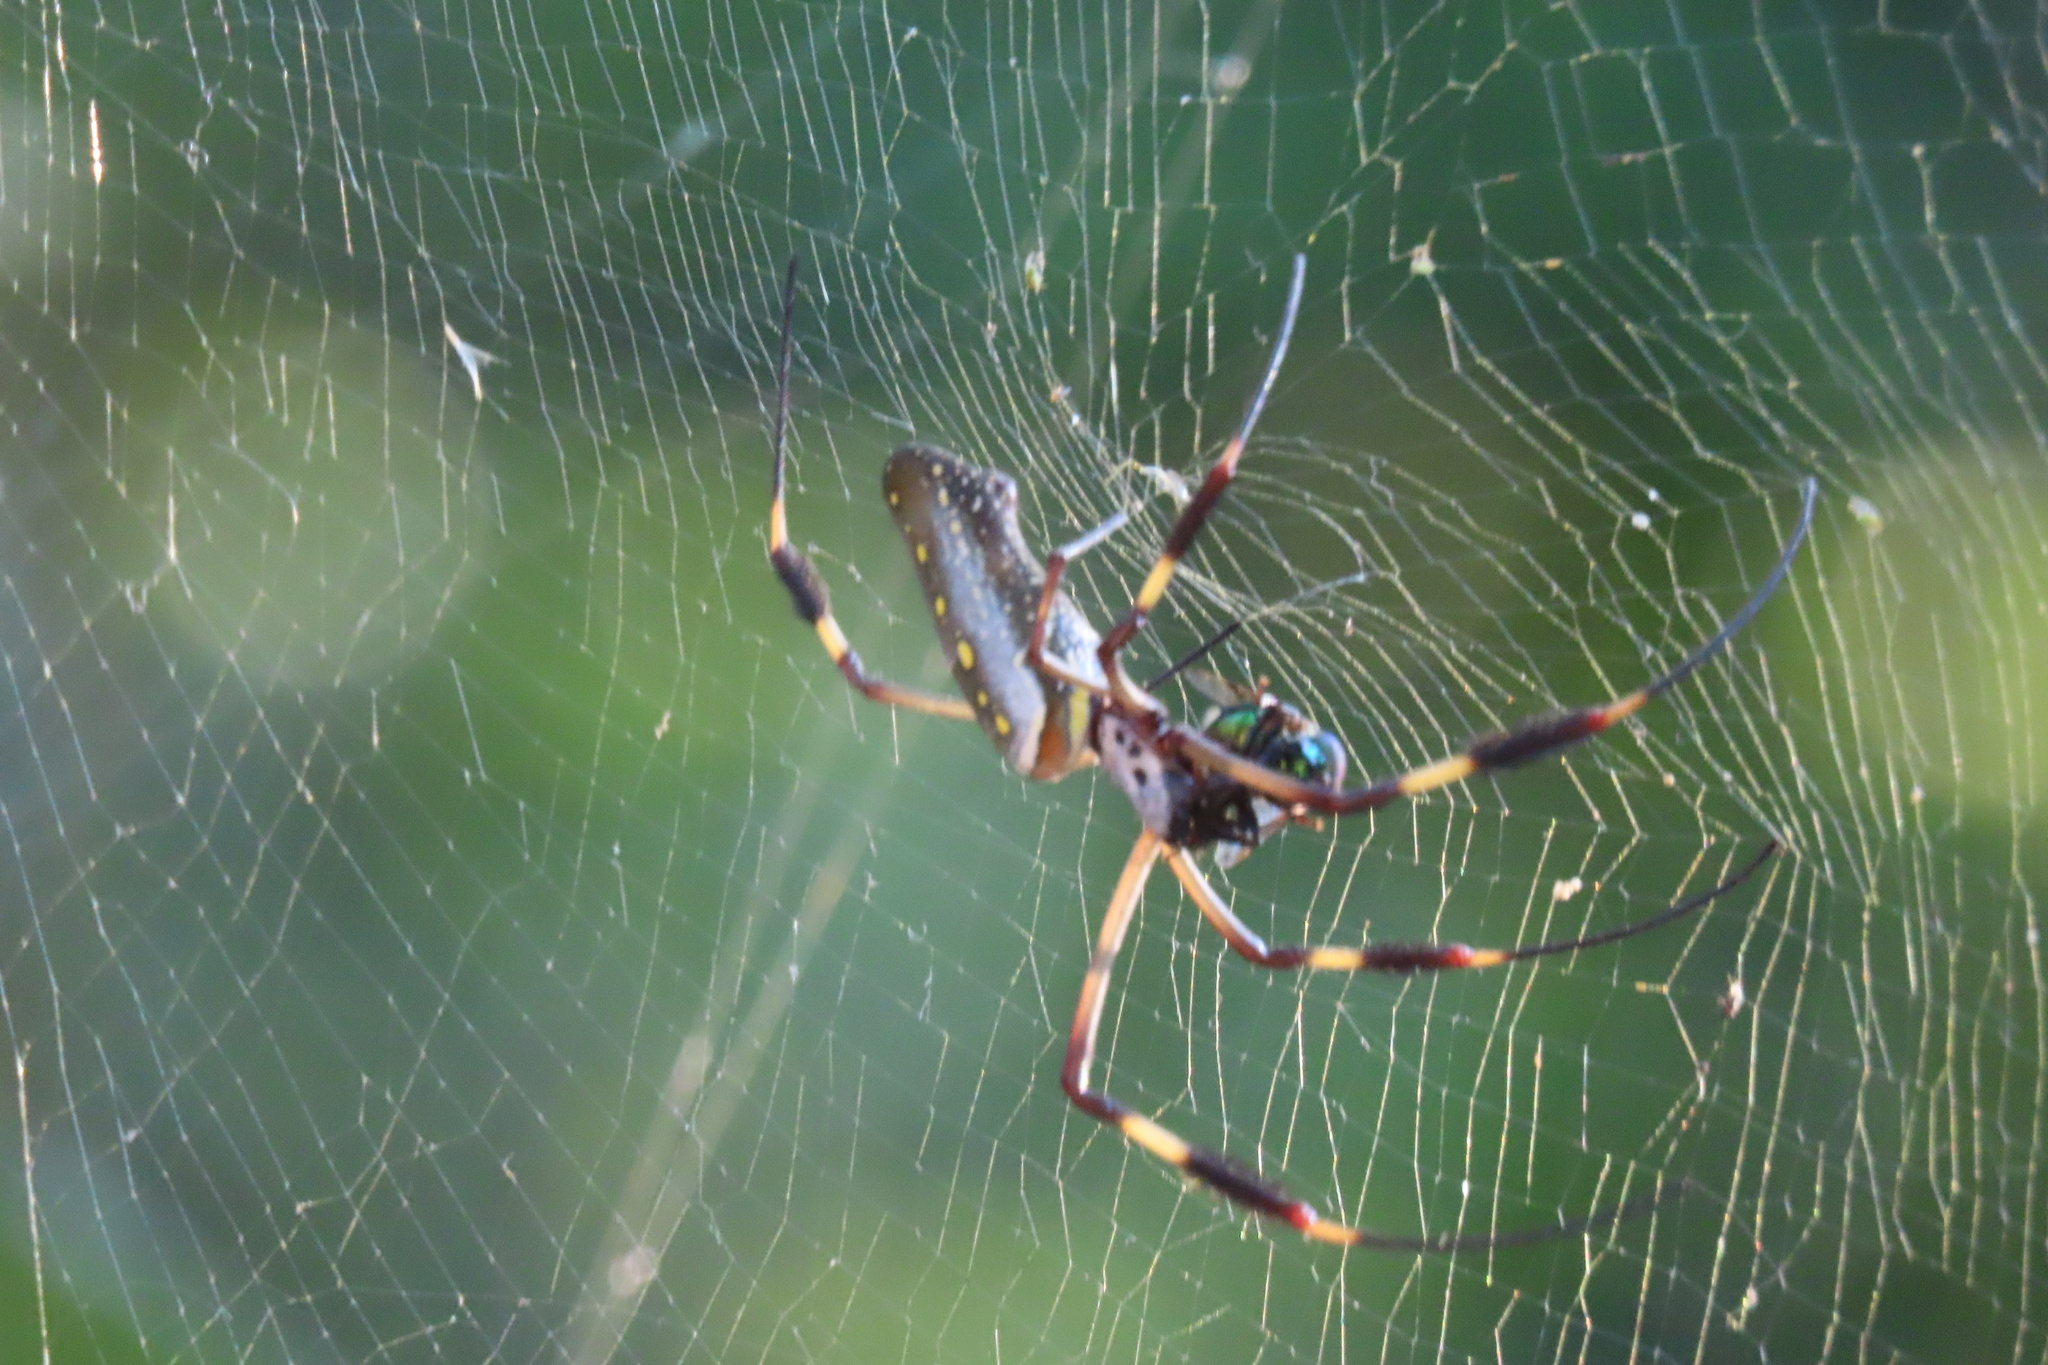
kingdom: Animalia
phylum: Arthropoda
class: Arachnida
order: Araneae
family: Araneidae
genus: Trichonephila
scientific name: Trichonephila clavipes
